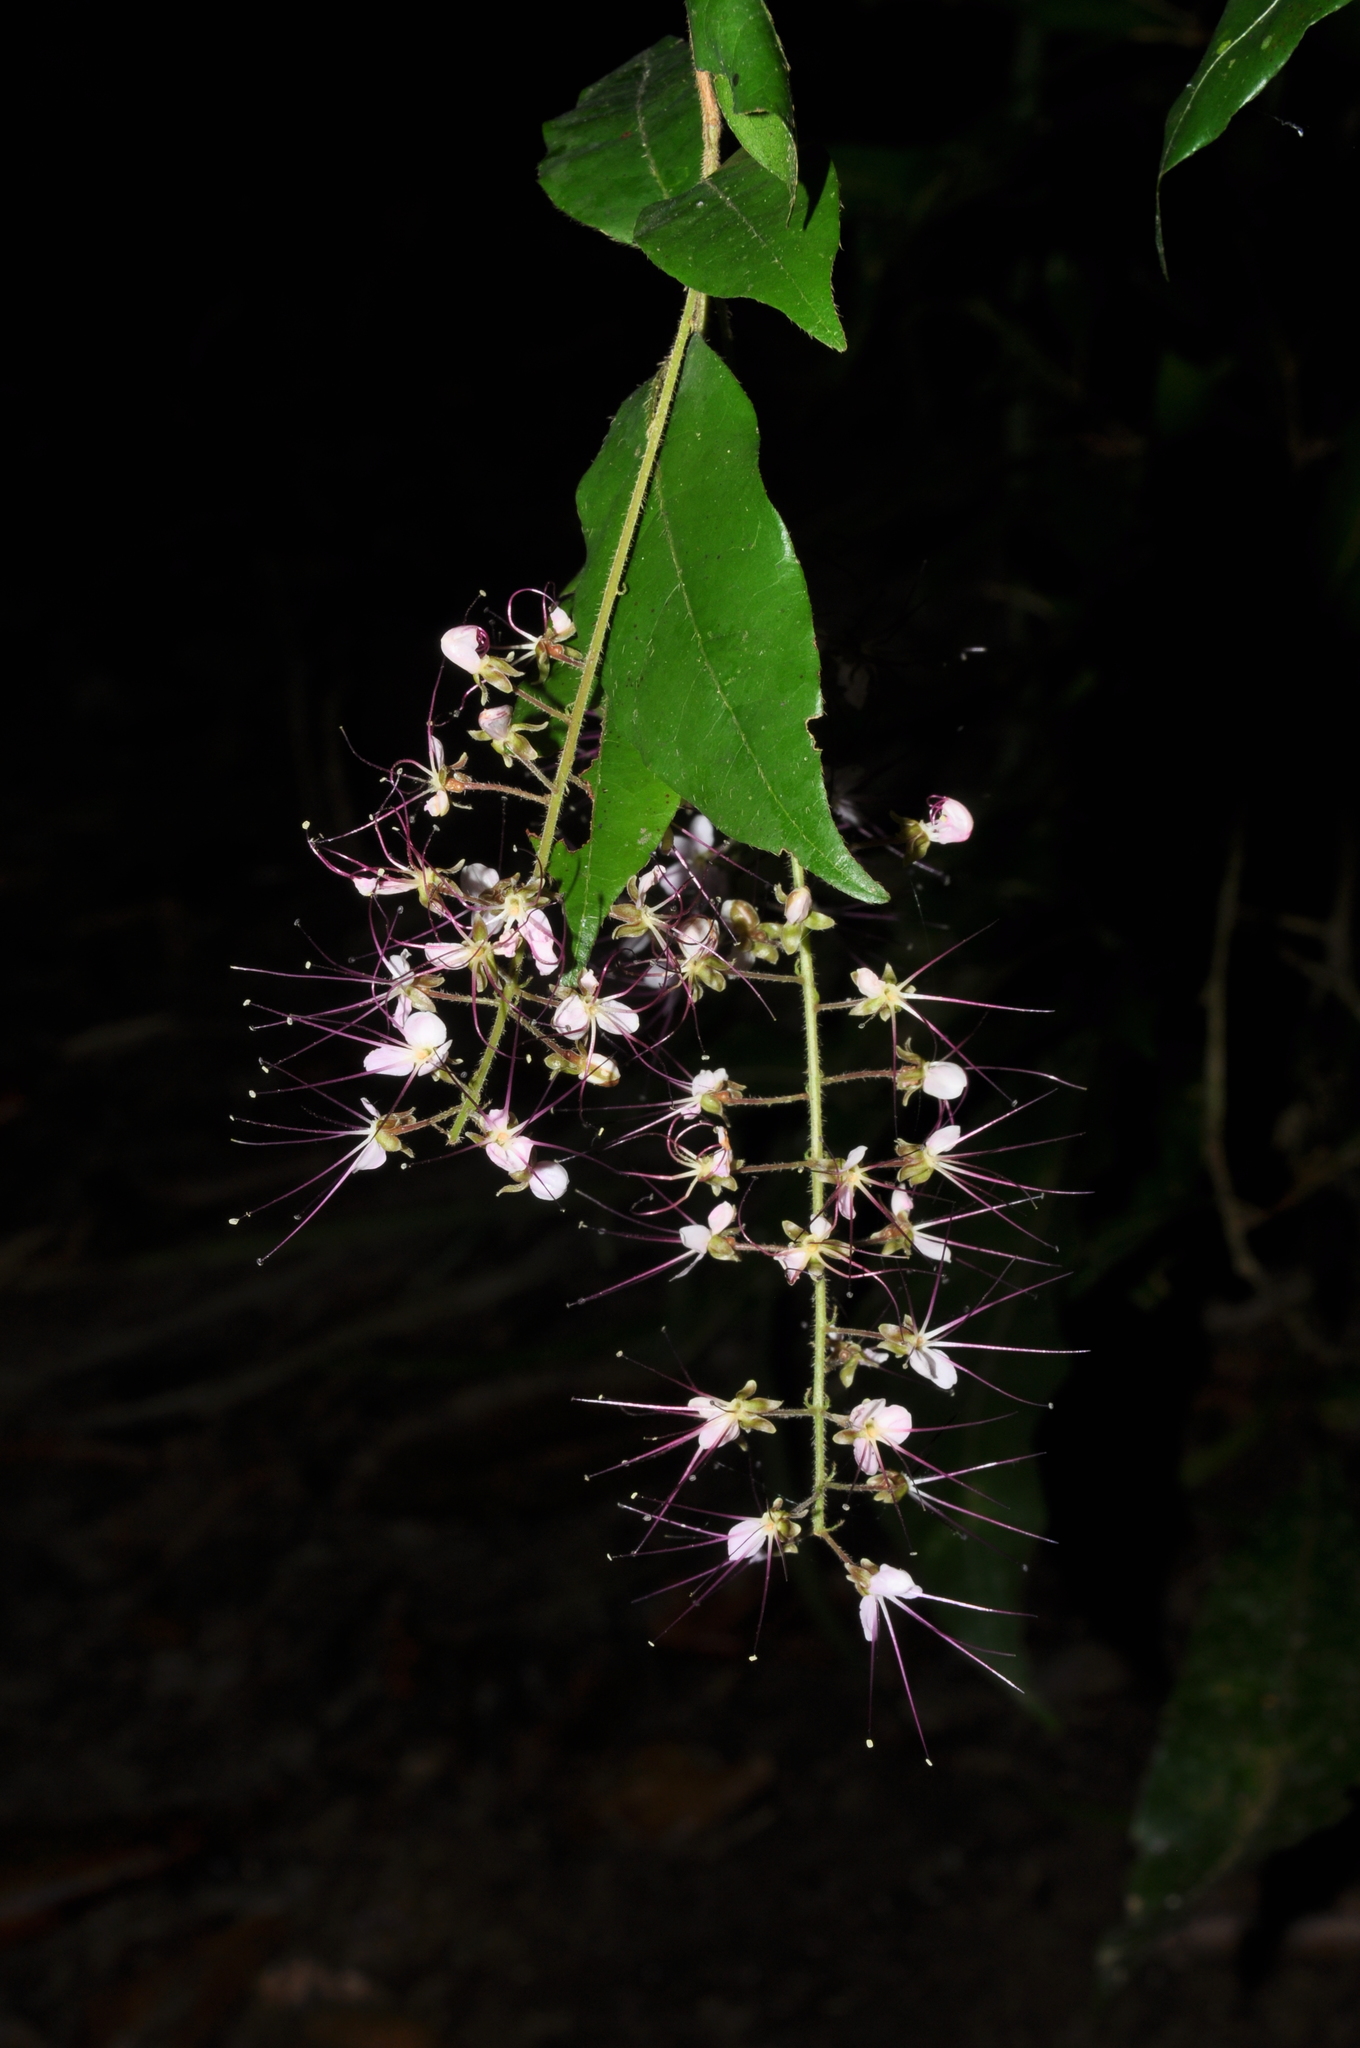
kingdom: Plantae
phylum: Tracheophyta
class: Magnoliopsida
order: Malpighiales
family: Chrysobalanaceae
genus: Hirtella
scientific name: Hirtella racemosa
